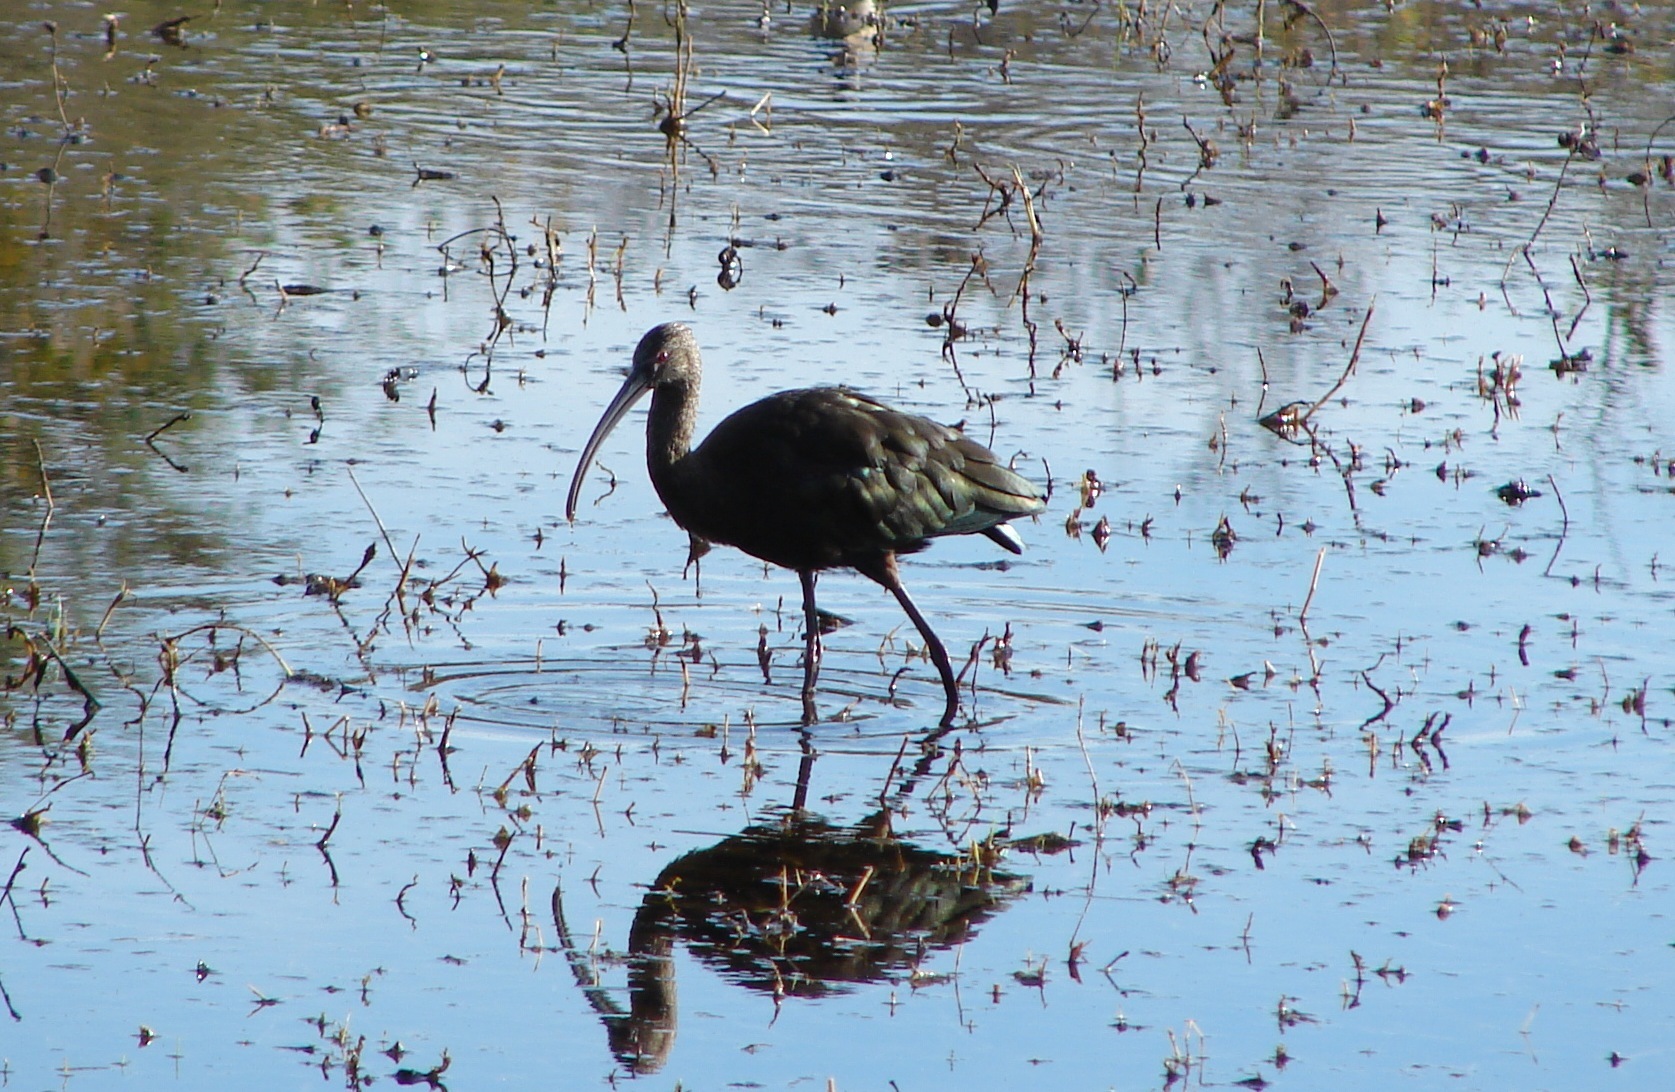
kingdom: Animalia
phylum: Chordata
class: Aves
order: Pelecaniformes
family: Threskiornithidae
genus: Plegadis
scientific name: Plegadis chihi
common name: White-faced ibis
